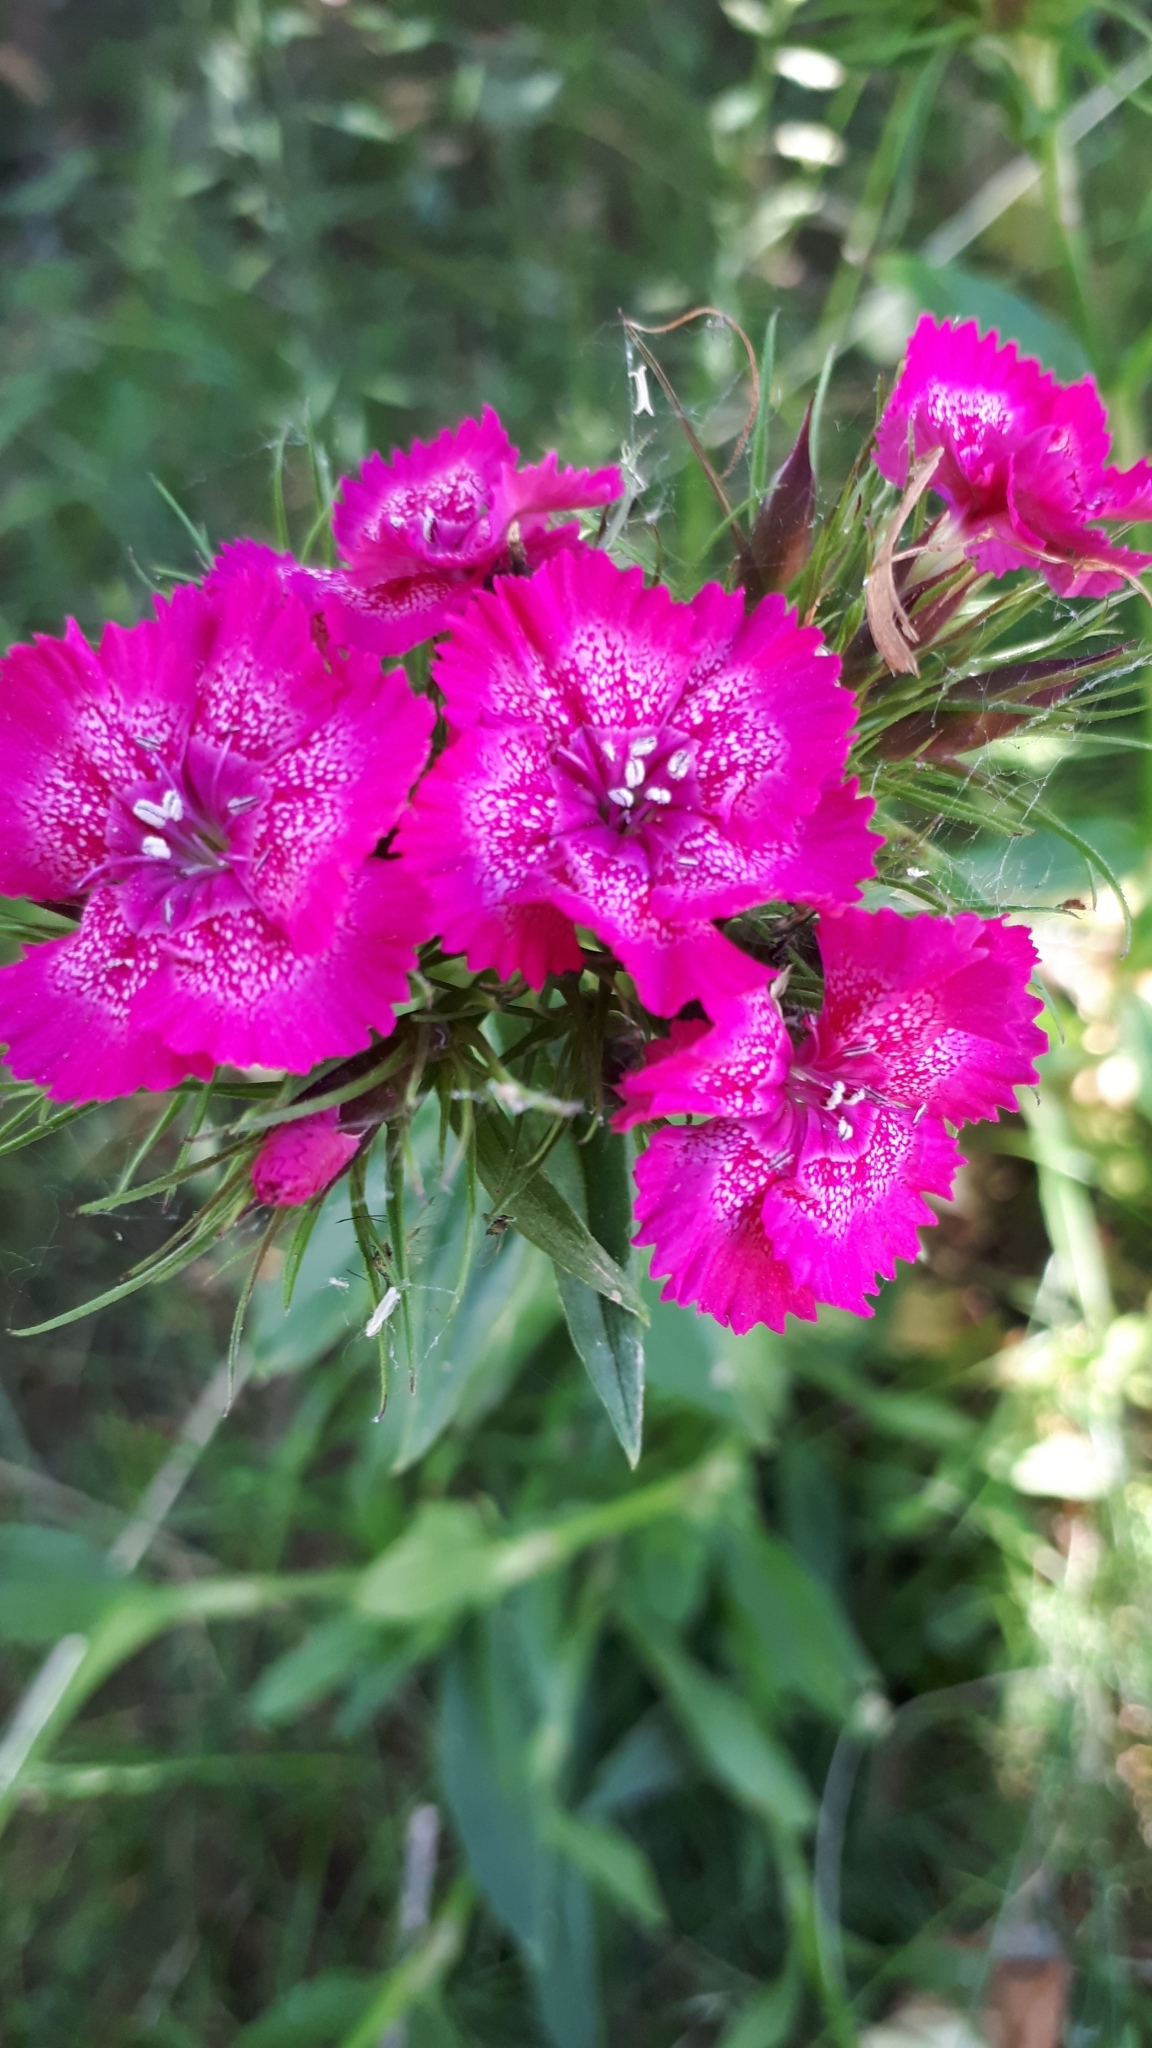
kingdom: Plantae
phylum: Tracheophyta
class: Magnoliopsida
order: Caryophyllales
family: Caryophyllaceae
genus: Dianthus
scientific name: Dianthus barbatus
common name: Sweet-william
